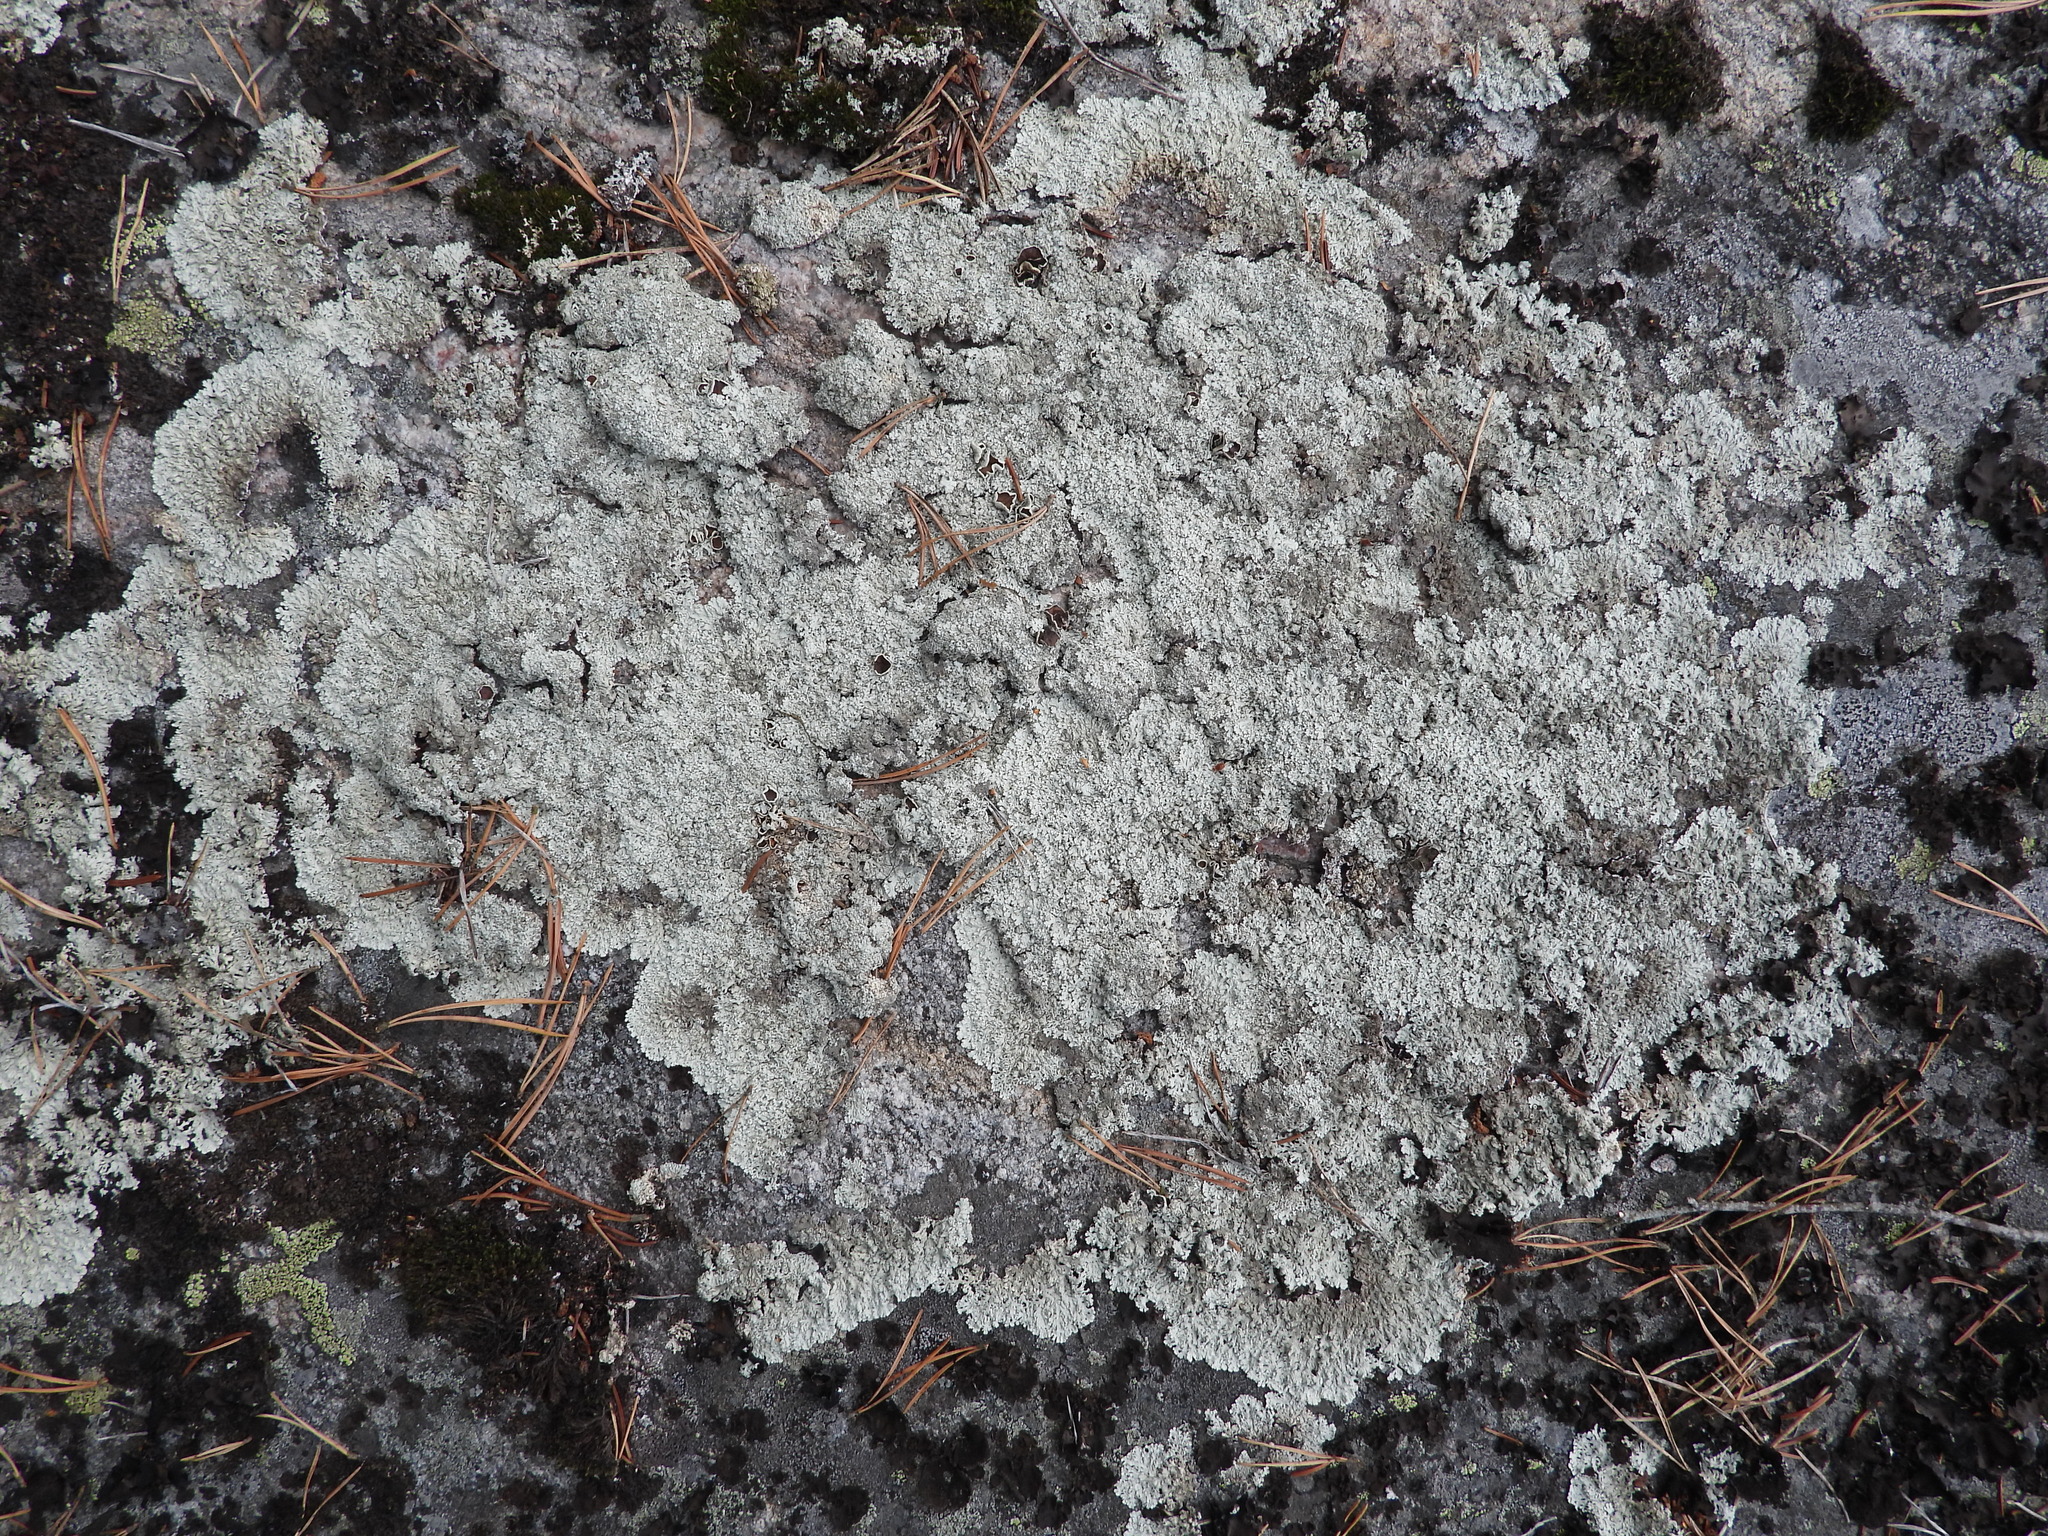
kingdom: Fungi
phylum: Ascomycota
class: Lecanoromycetes
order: Lecanorales
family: Parmeliaceae
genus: Arctoparmelia
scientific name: Arctoparmelia centrifuga
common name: Concentric ring lichen
